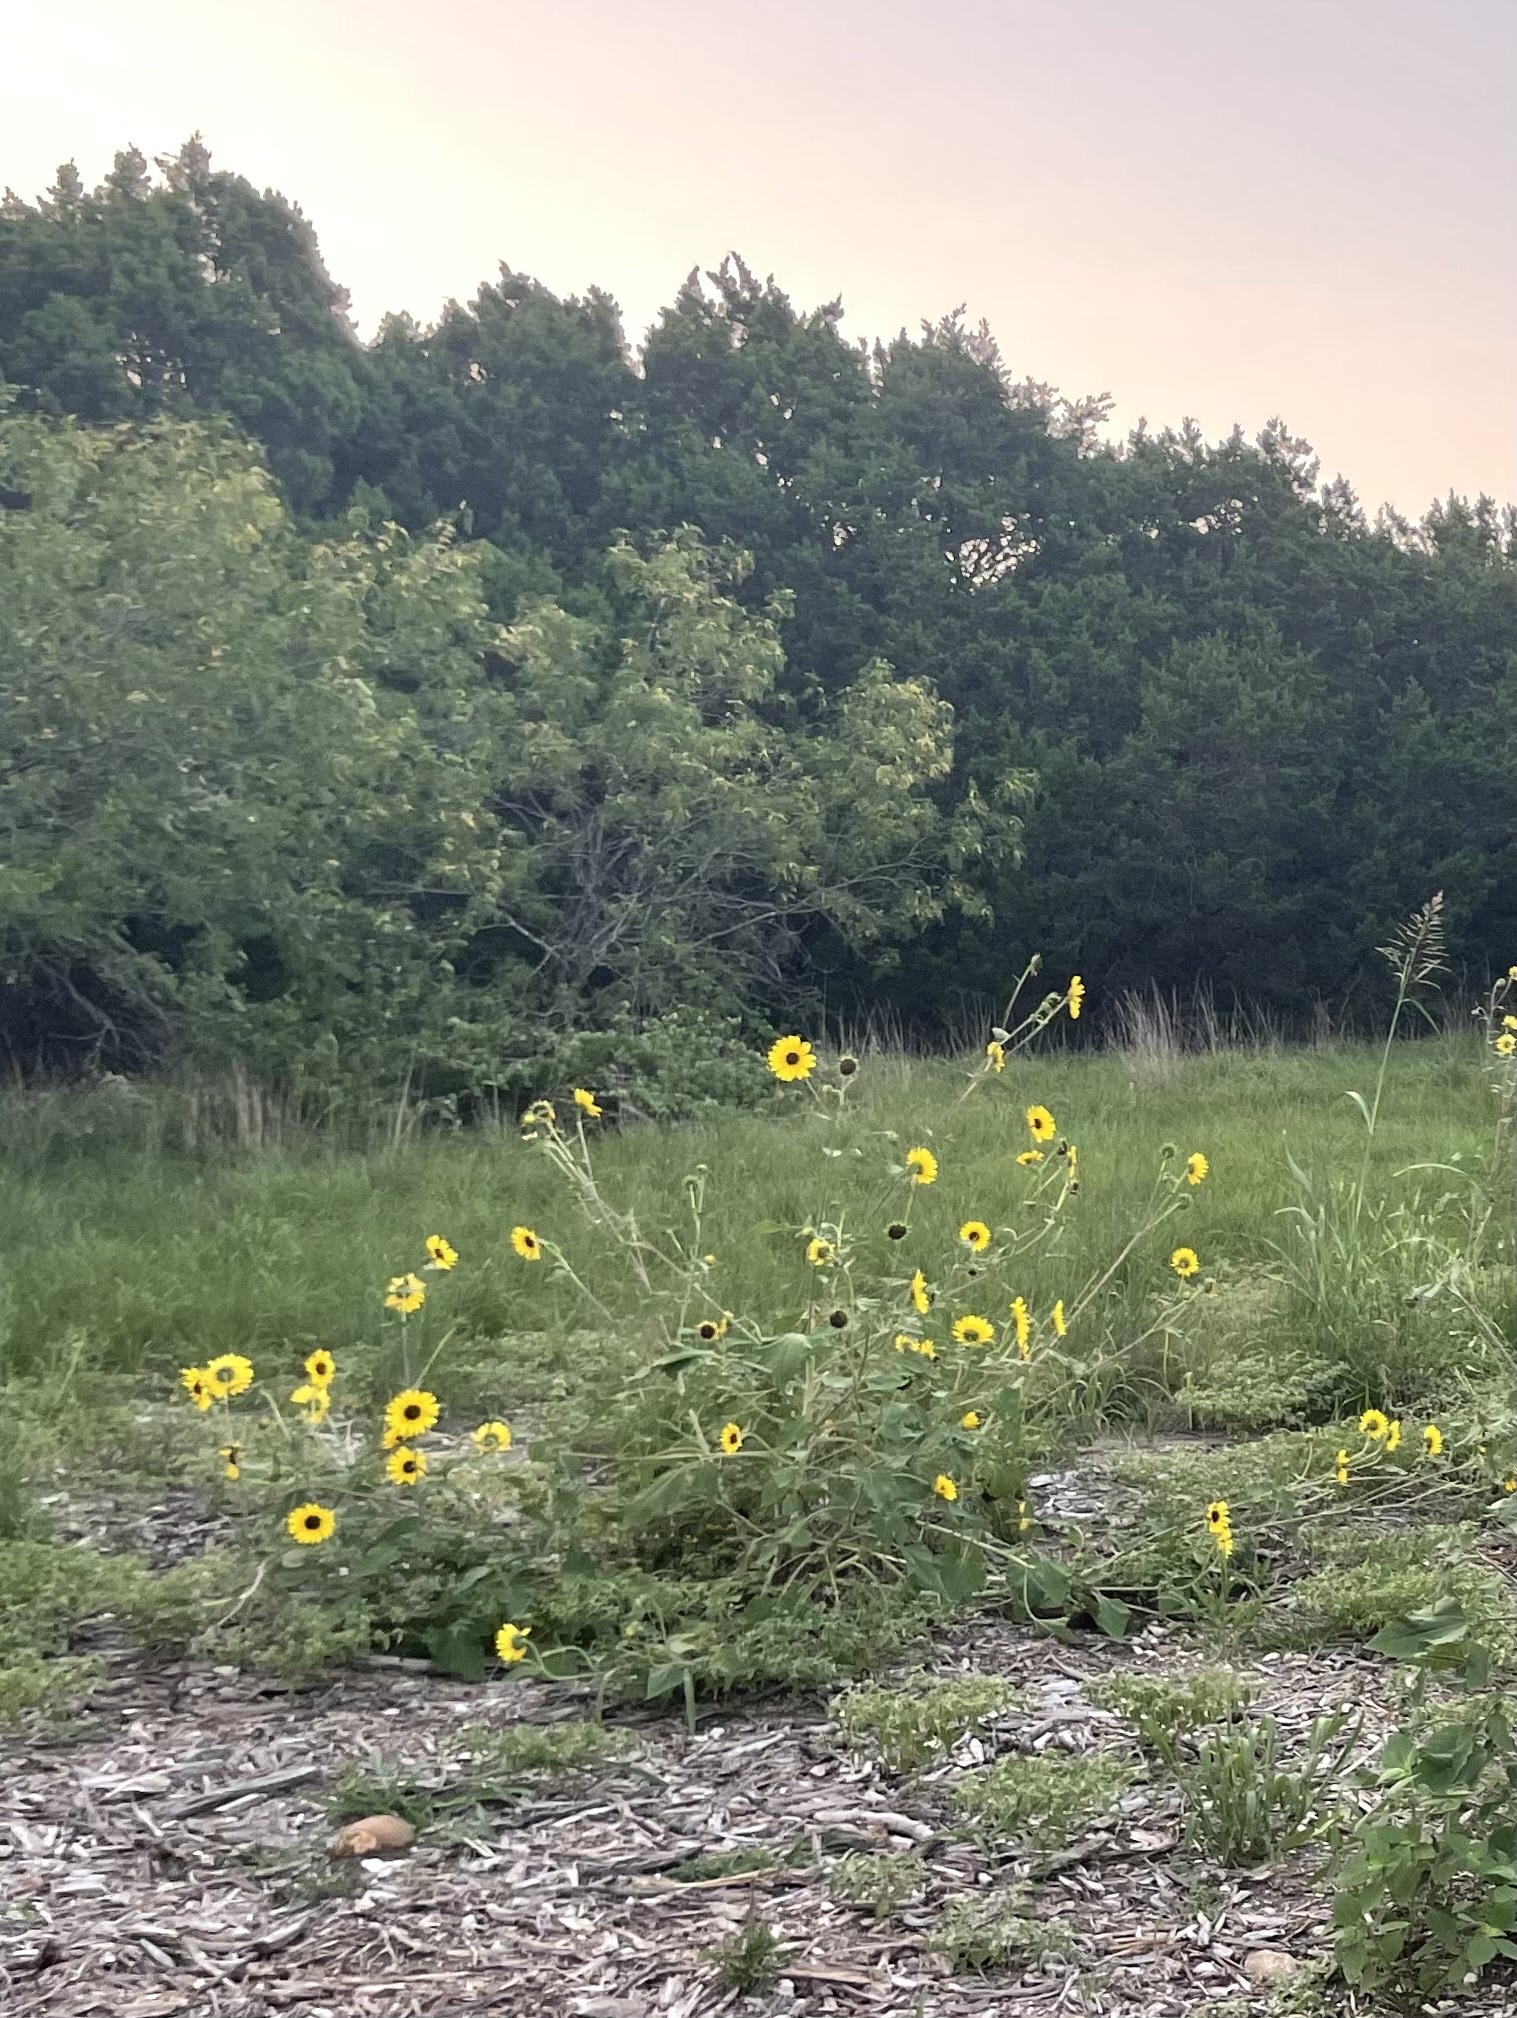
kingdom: Plantae
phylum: Tracheophyta
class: Magnoliopsida
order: Asterales
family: Asteraceae
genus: Helianthus
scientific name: Helianthus annuus
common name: Sunflower
